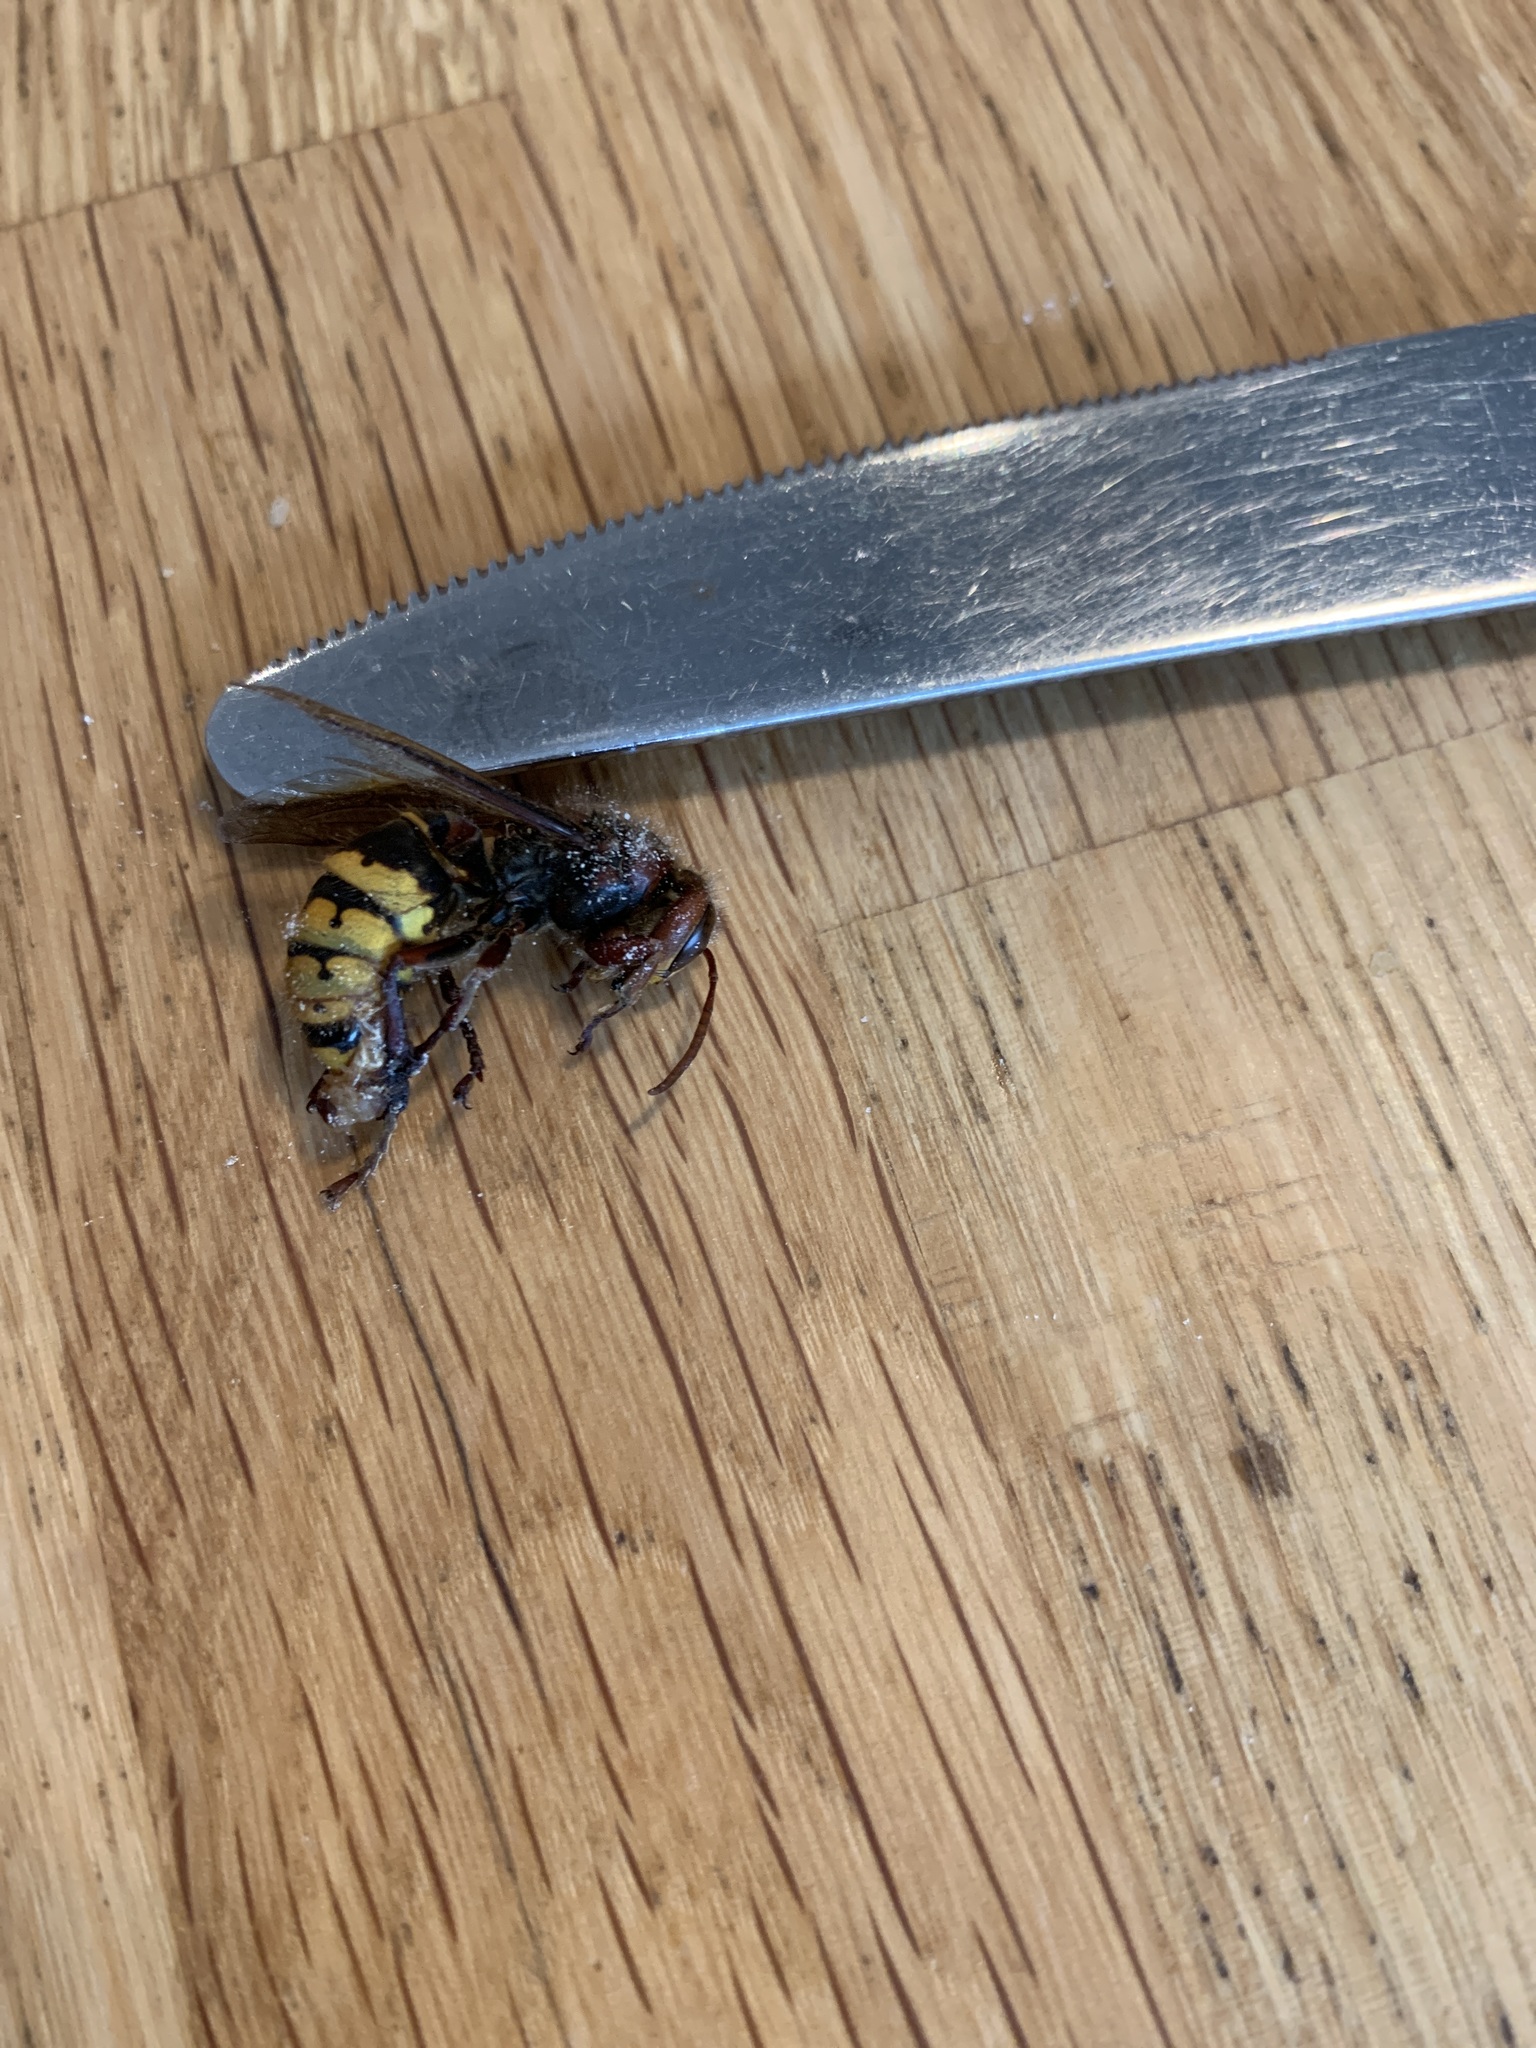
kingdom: Animalia
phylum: Arthropoda
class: Insecta
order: Hymenoptera
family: Vespidae
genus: Vespa
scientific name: Vespa crabro
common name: Hornet
